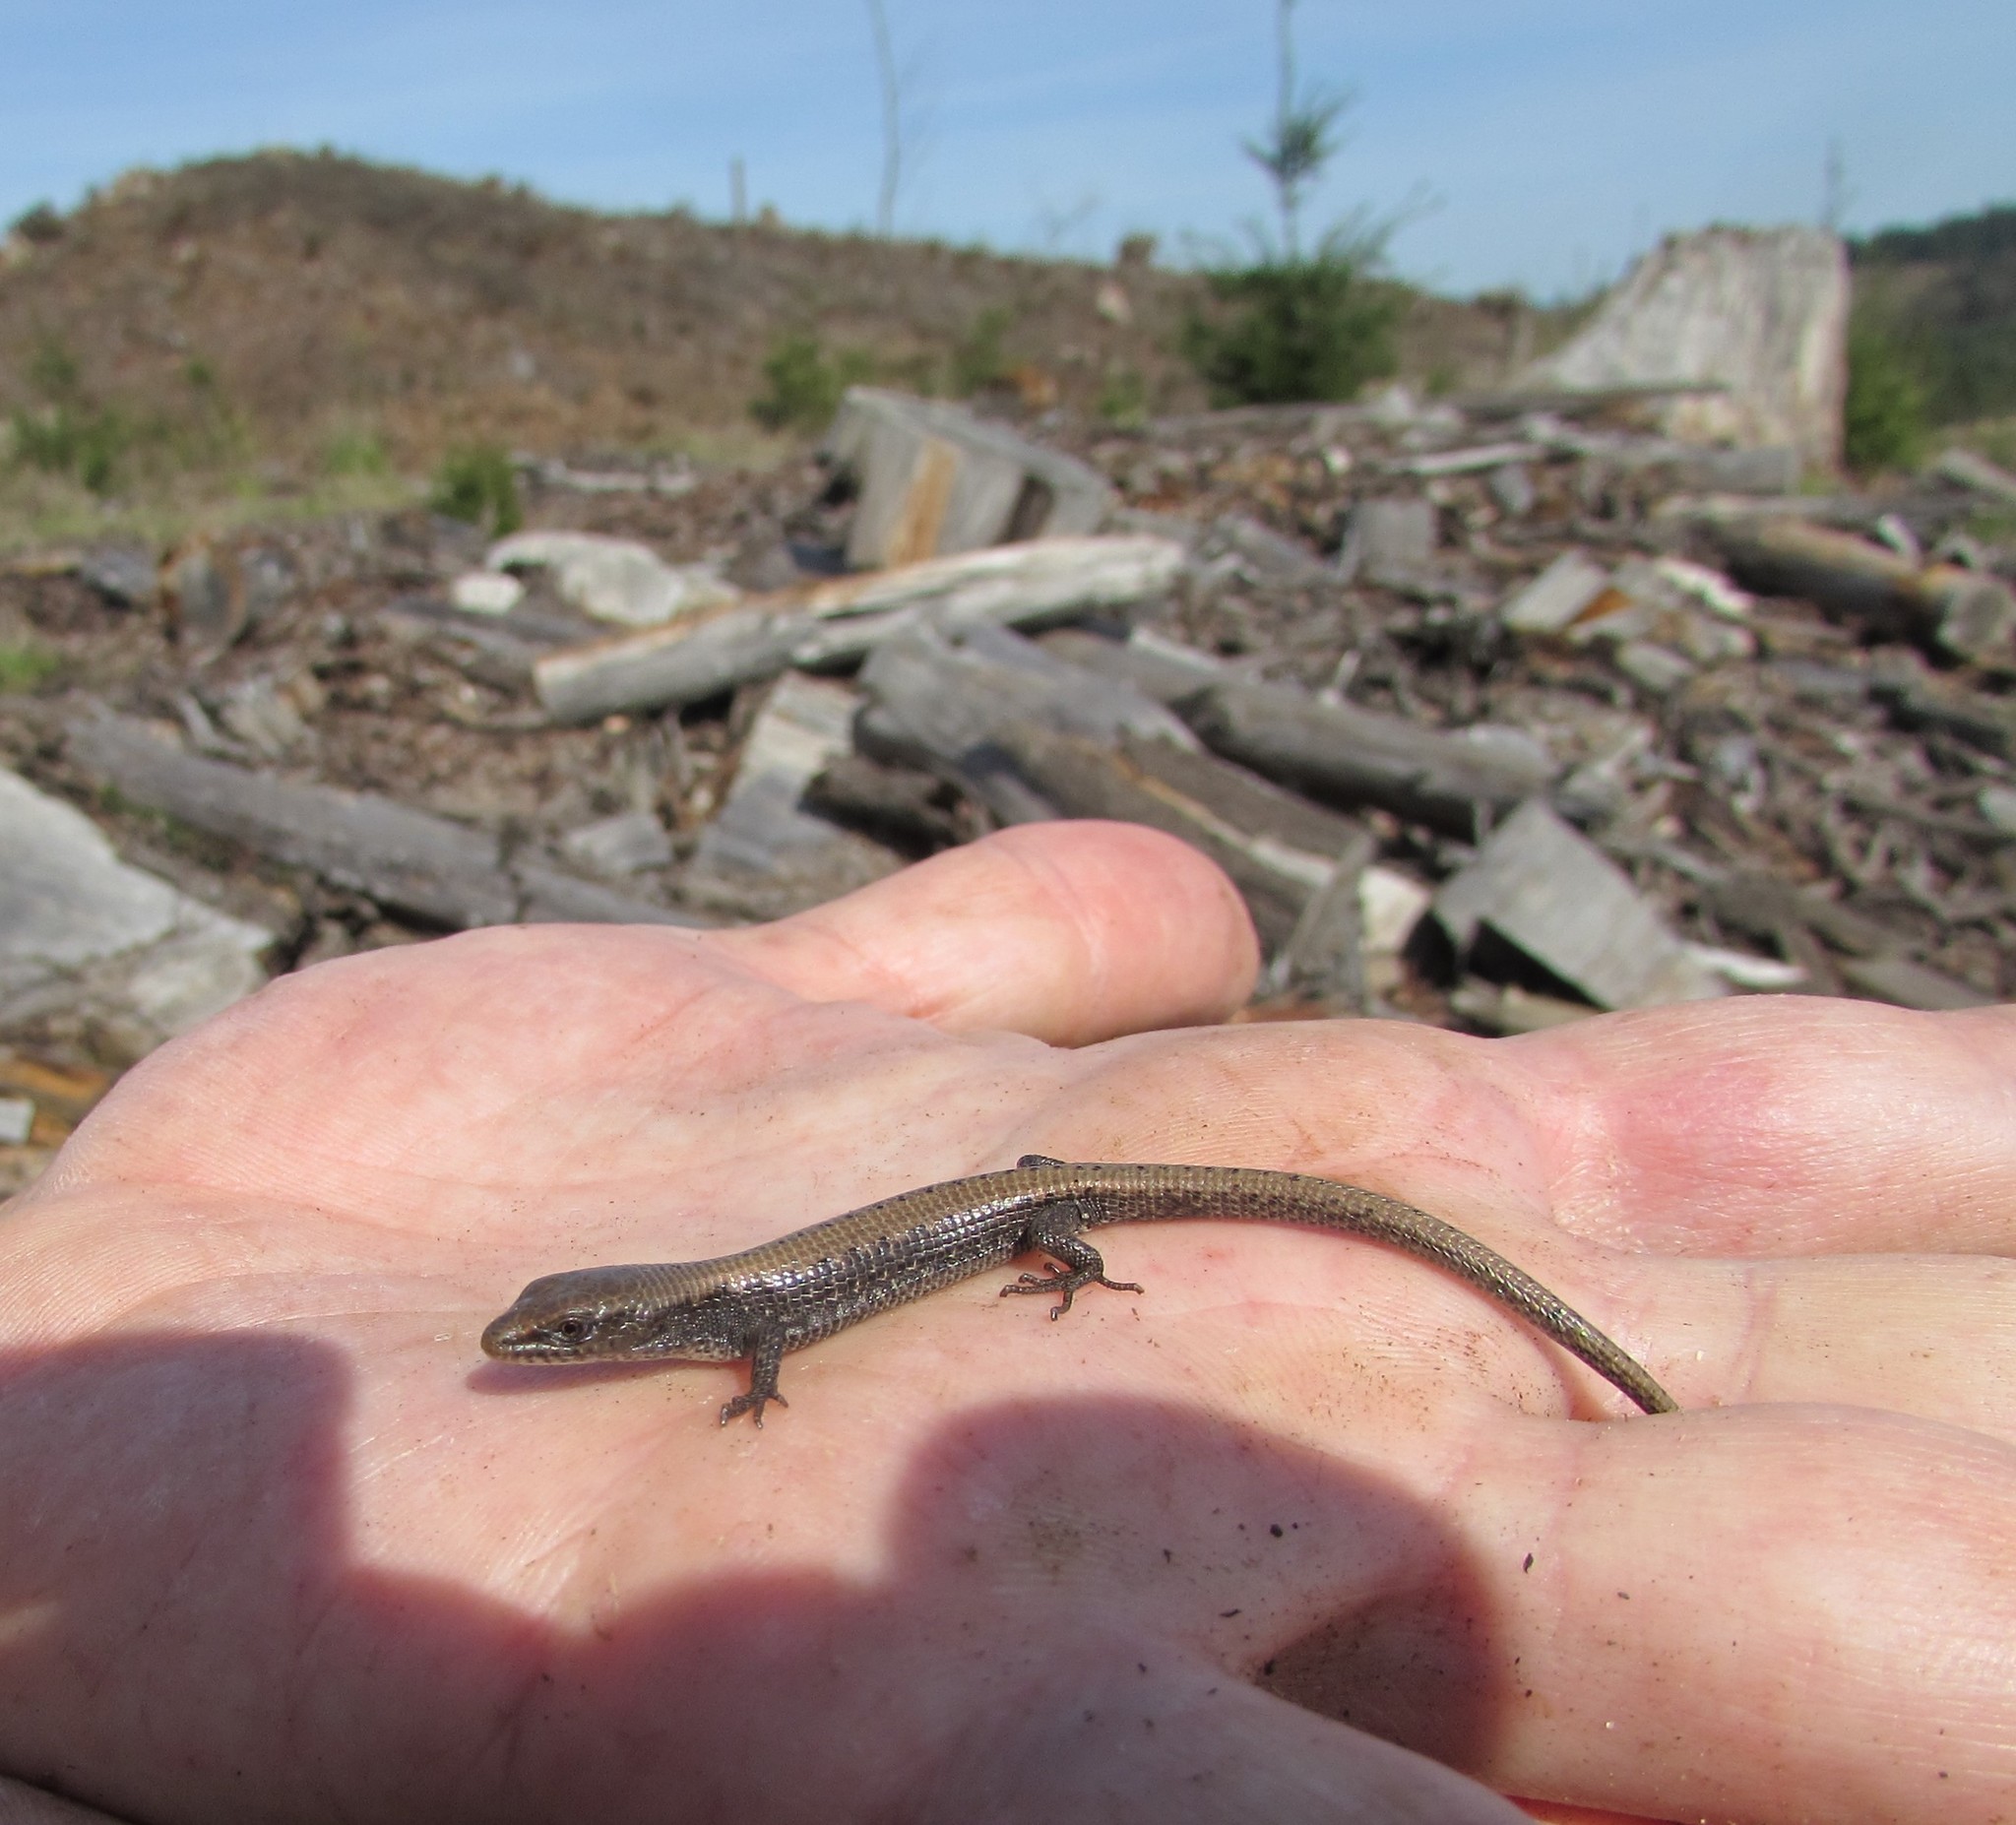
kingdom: Animalia
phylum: Chordata
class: Squamata
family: Anguidae
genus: Elgaria
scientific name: Elgaria coerulea
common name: Northern alligator lizard
